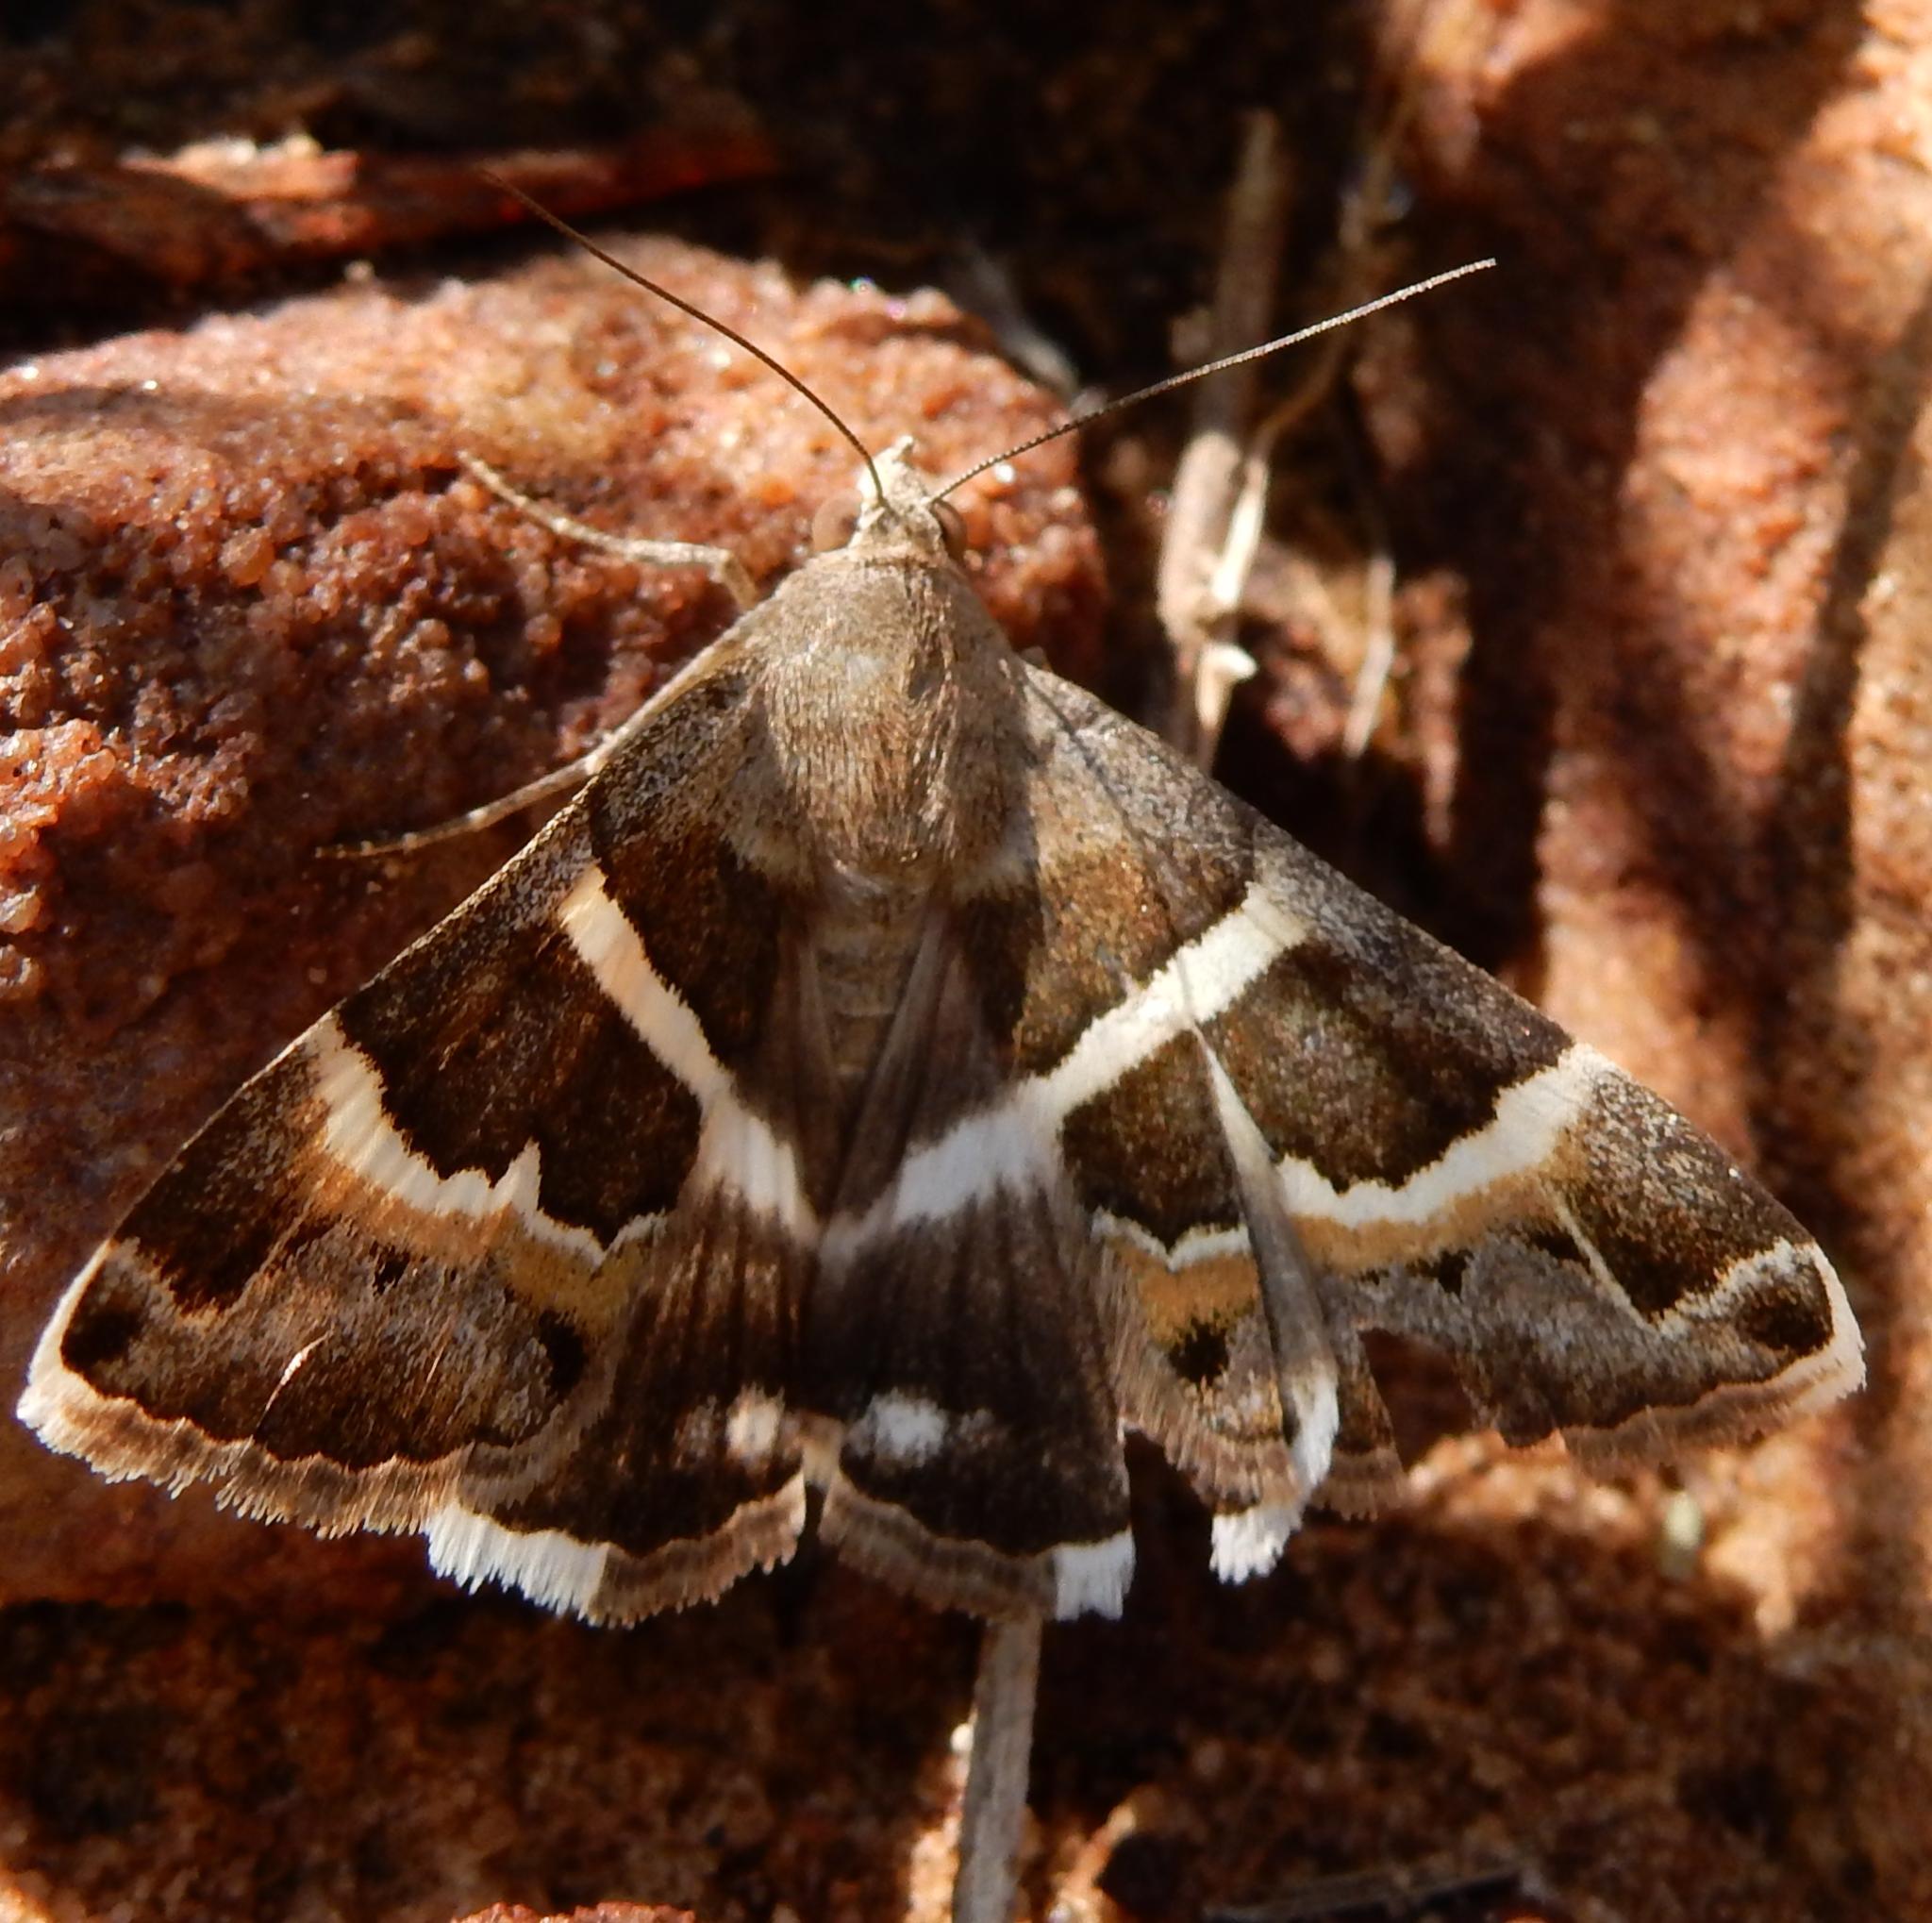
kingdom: Animalia
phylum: Arthropoda
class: Insecta
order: Lepidoptera
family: Erebidae
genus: Grammodes
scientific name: Grammodes stolida
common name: Geometrician
